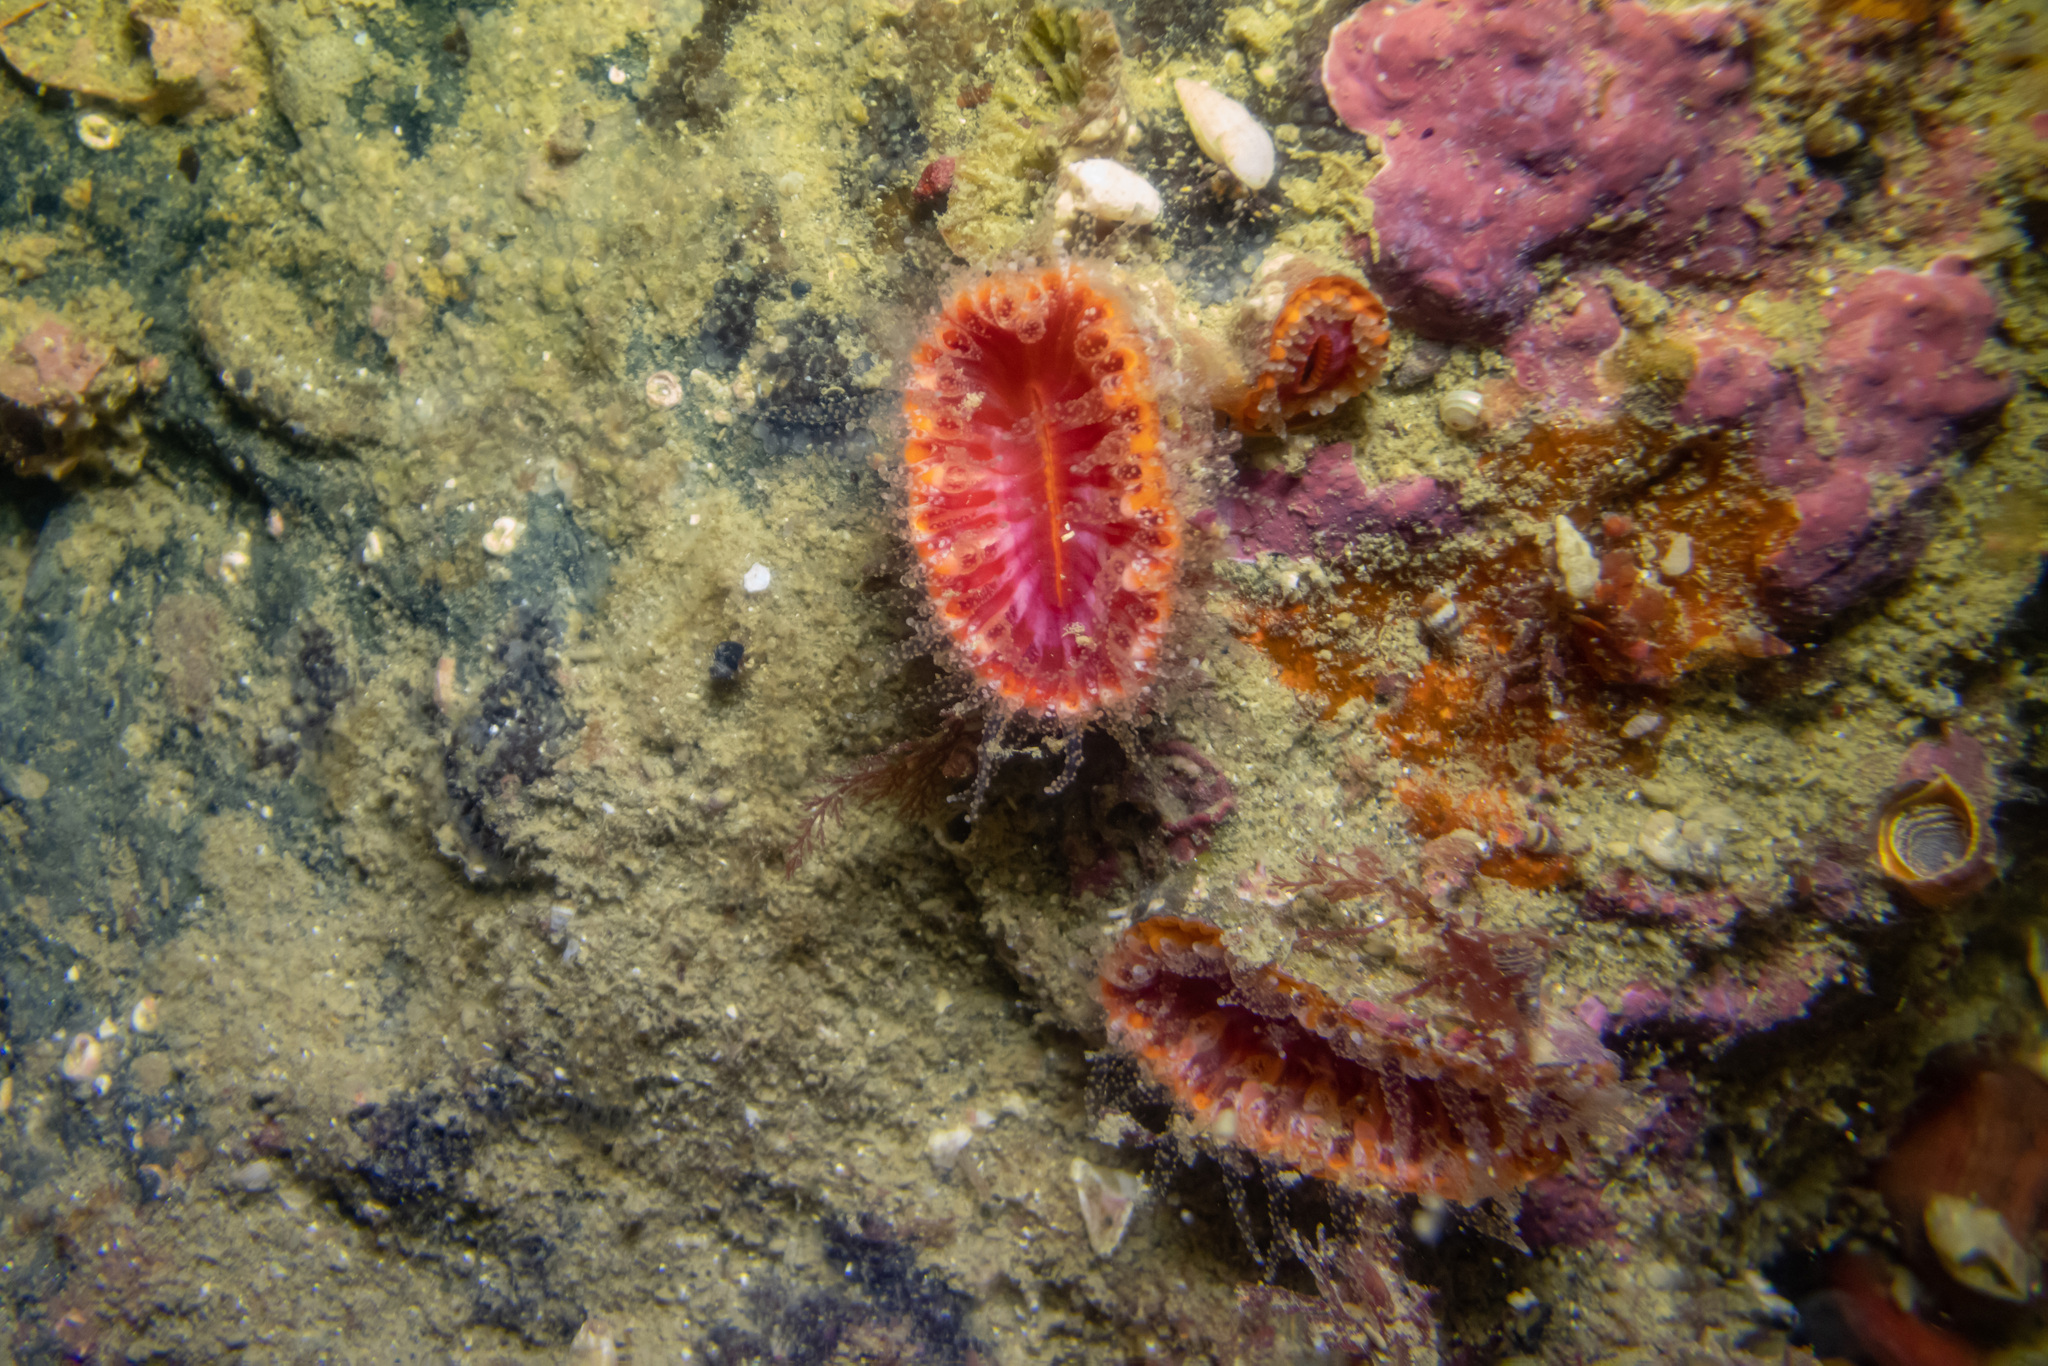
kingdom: Animalia
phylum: Cnidaria
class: Anthozoa
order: Scleractinia
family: Flabellidae
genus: Monomyces
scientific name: Monomyces rubrum
